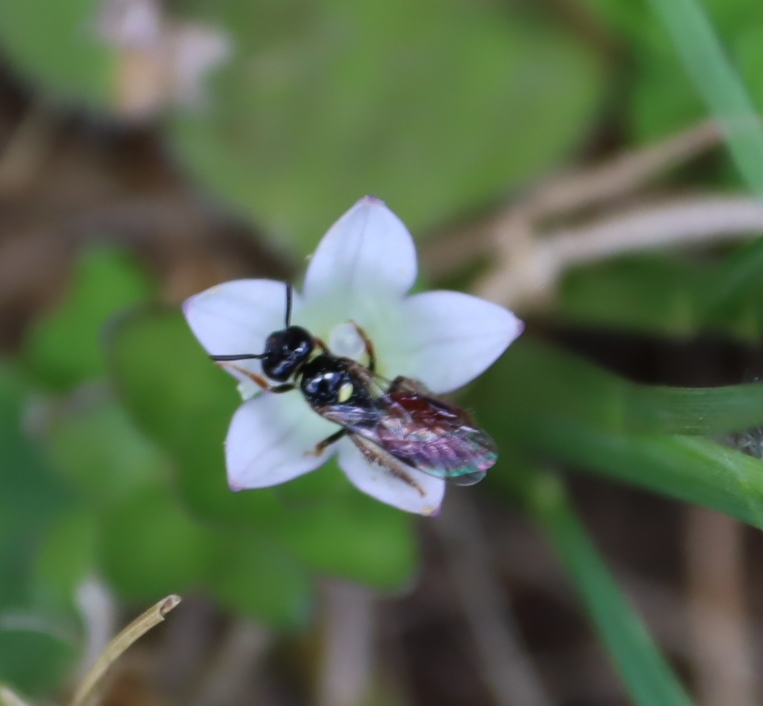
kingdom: Plantae
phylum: Tracheophyta
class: Magnoliopsida
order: Asterales
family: Campanulaceae
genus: Wahlenbergia
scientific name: Wahlenbergia procumbens
